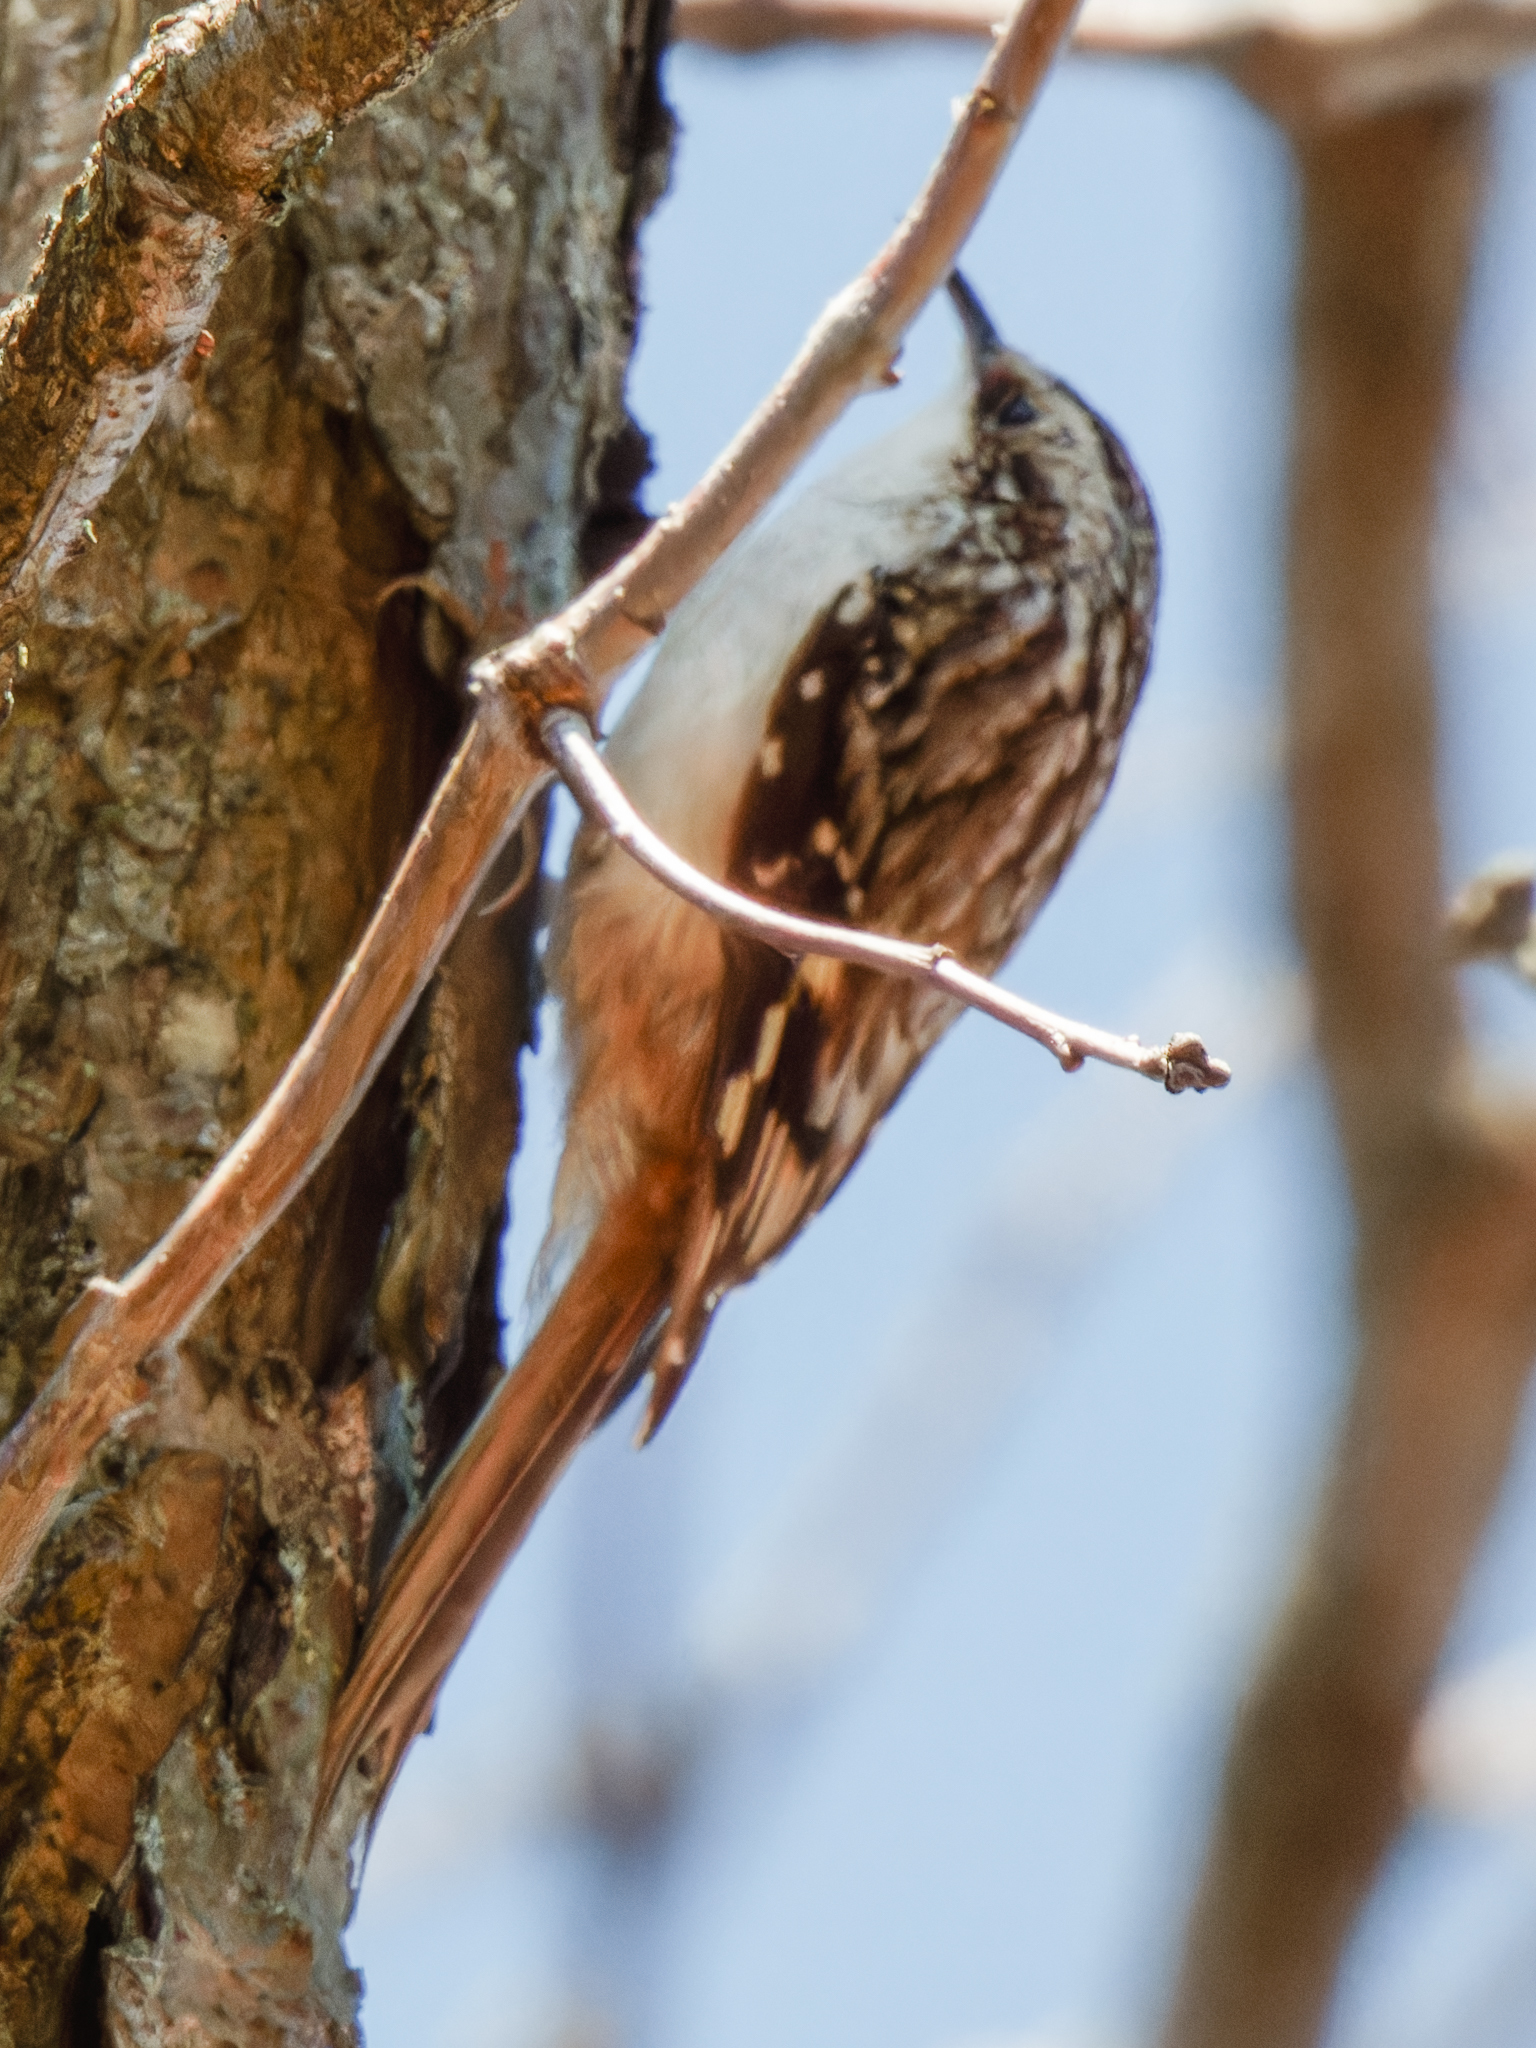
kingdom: Animalia
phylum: Chordata
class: Aves
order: Passeriformes
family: Certhiidae
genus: Certhia
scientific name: Certhia americana
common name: Brown creeper
